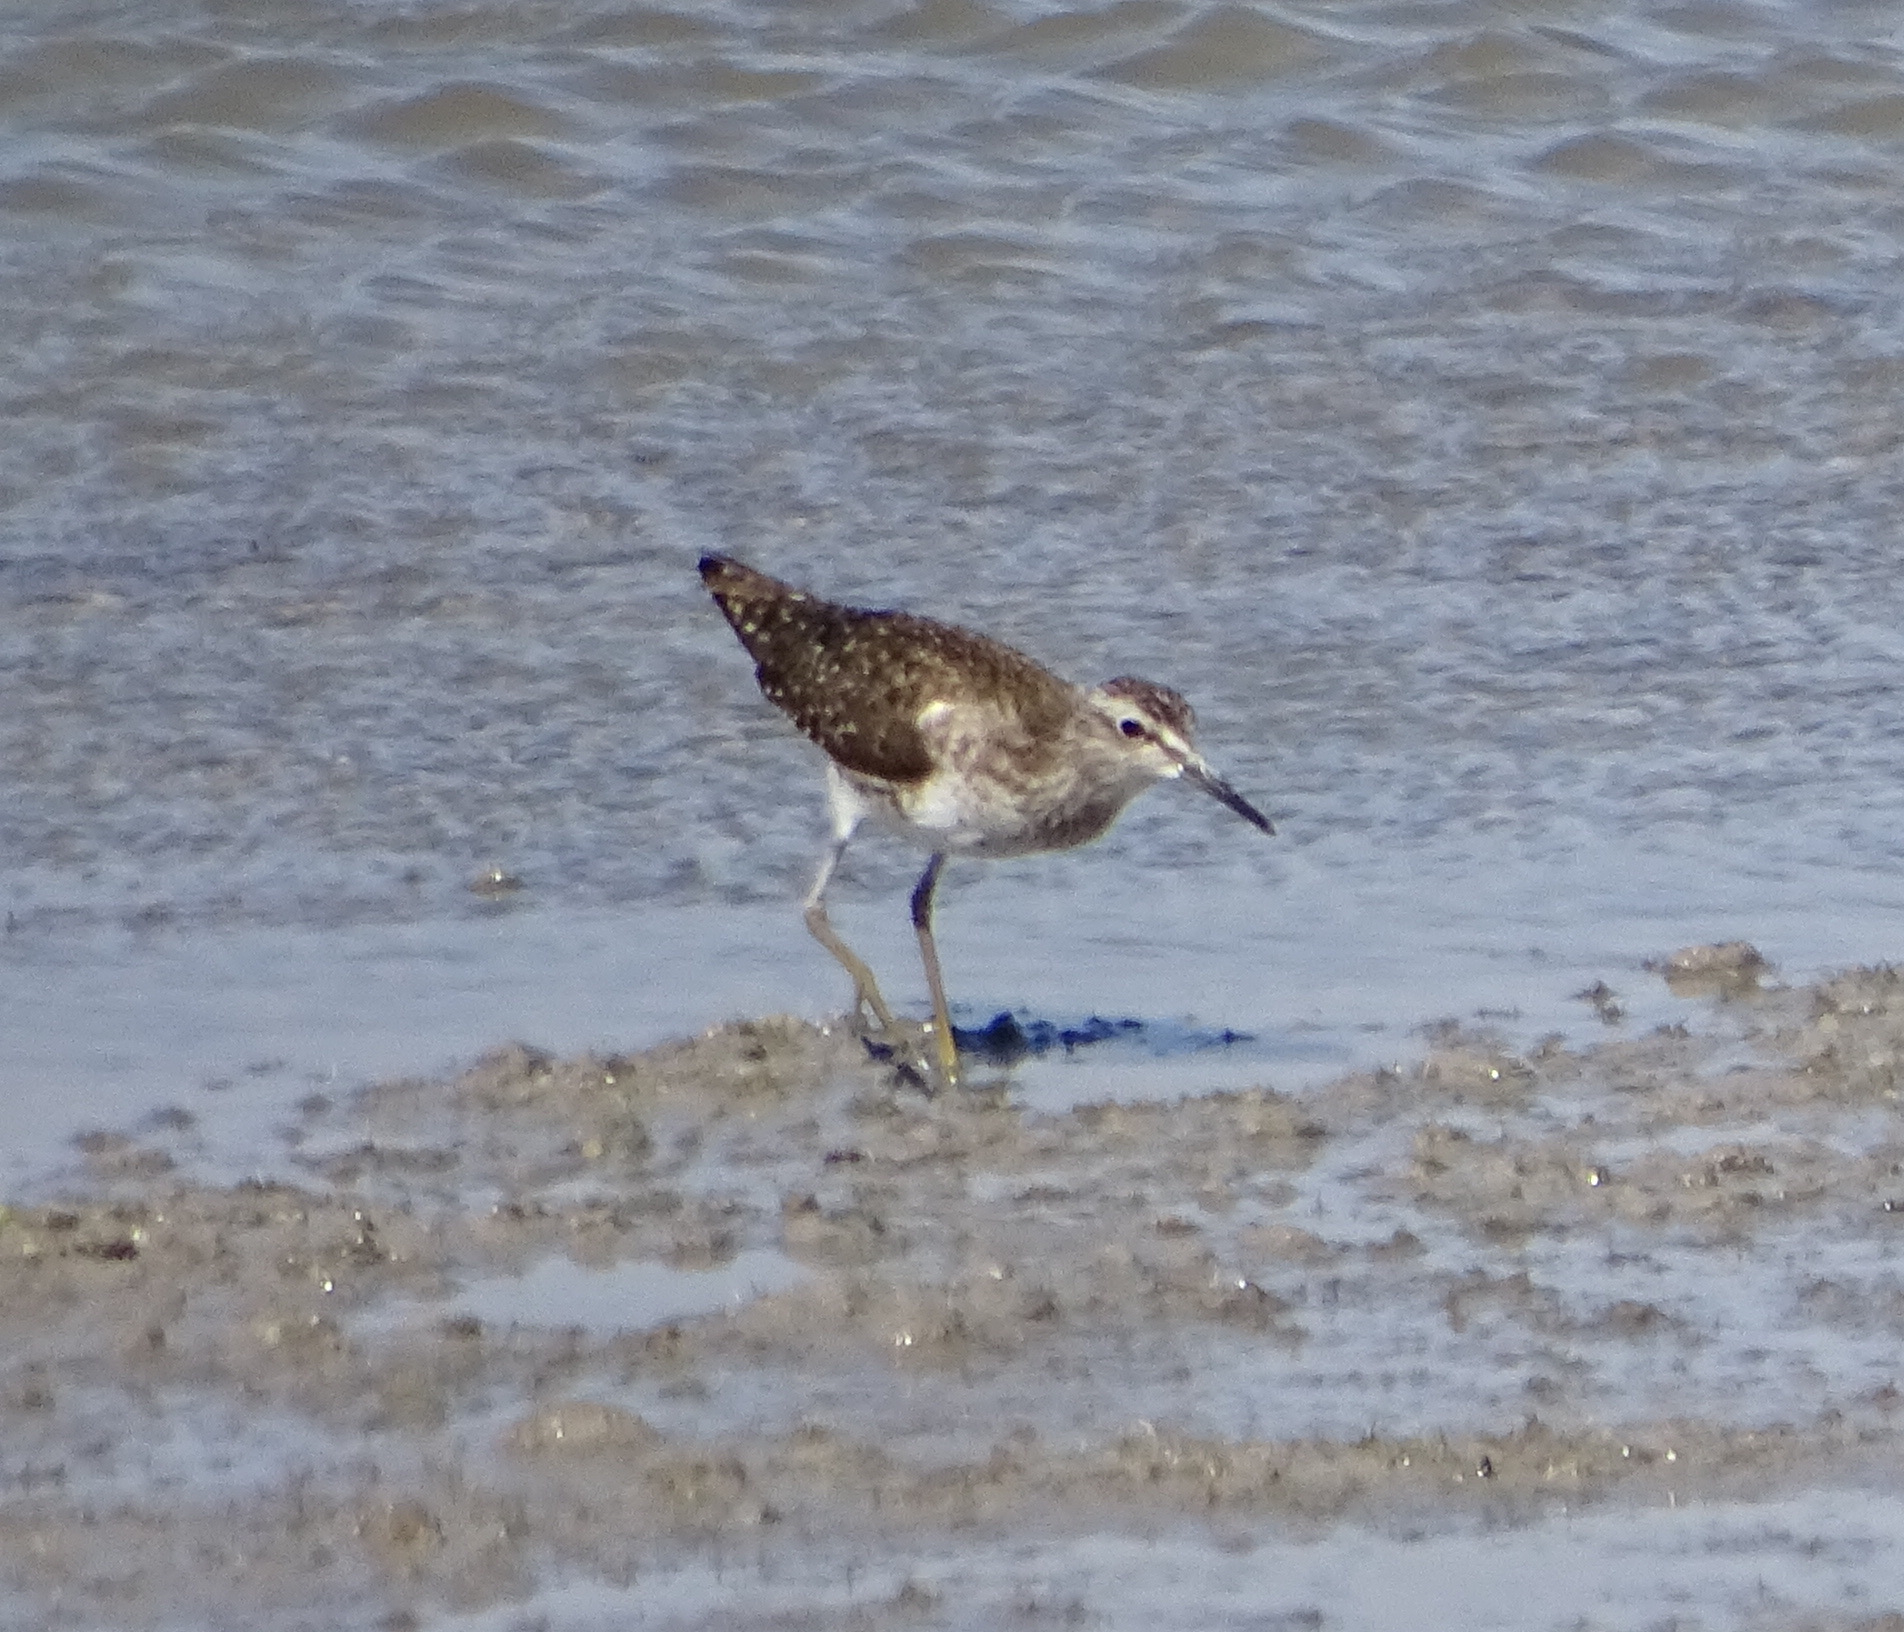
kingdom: Animalia
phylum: Chordata
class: Aves
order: Charadriiformes
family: Scolopacidae
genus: Tringa
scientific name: Tringa glareola
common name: Wood sandpiper
